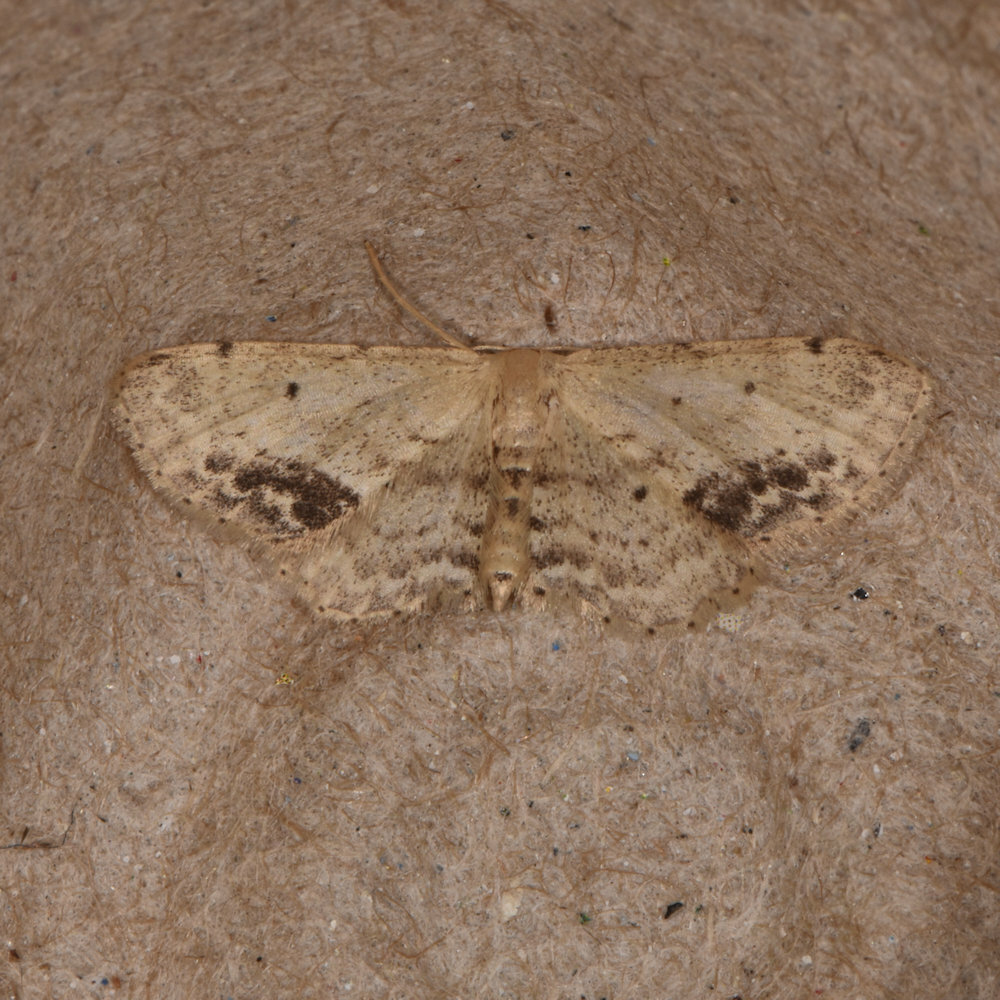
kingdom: Animalia
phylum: Arthropoda
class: Insecta
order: Lepidoptera
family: Geometridae
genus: Idaea
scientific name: Idaea dimidiata
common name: Single-dotted wave
